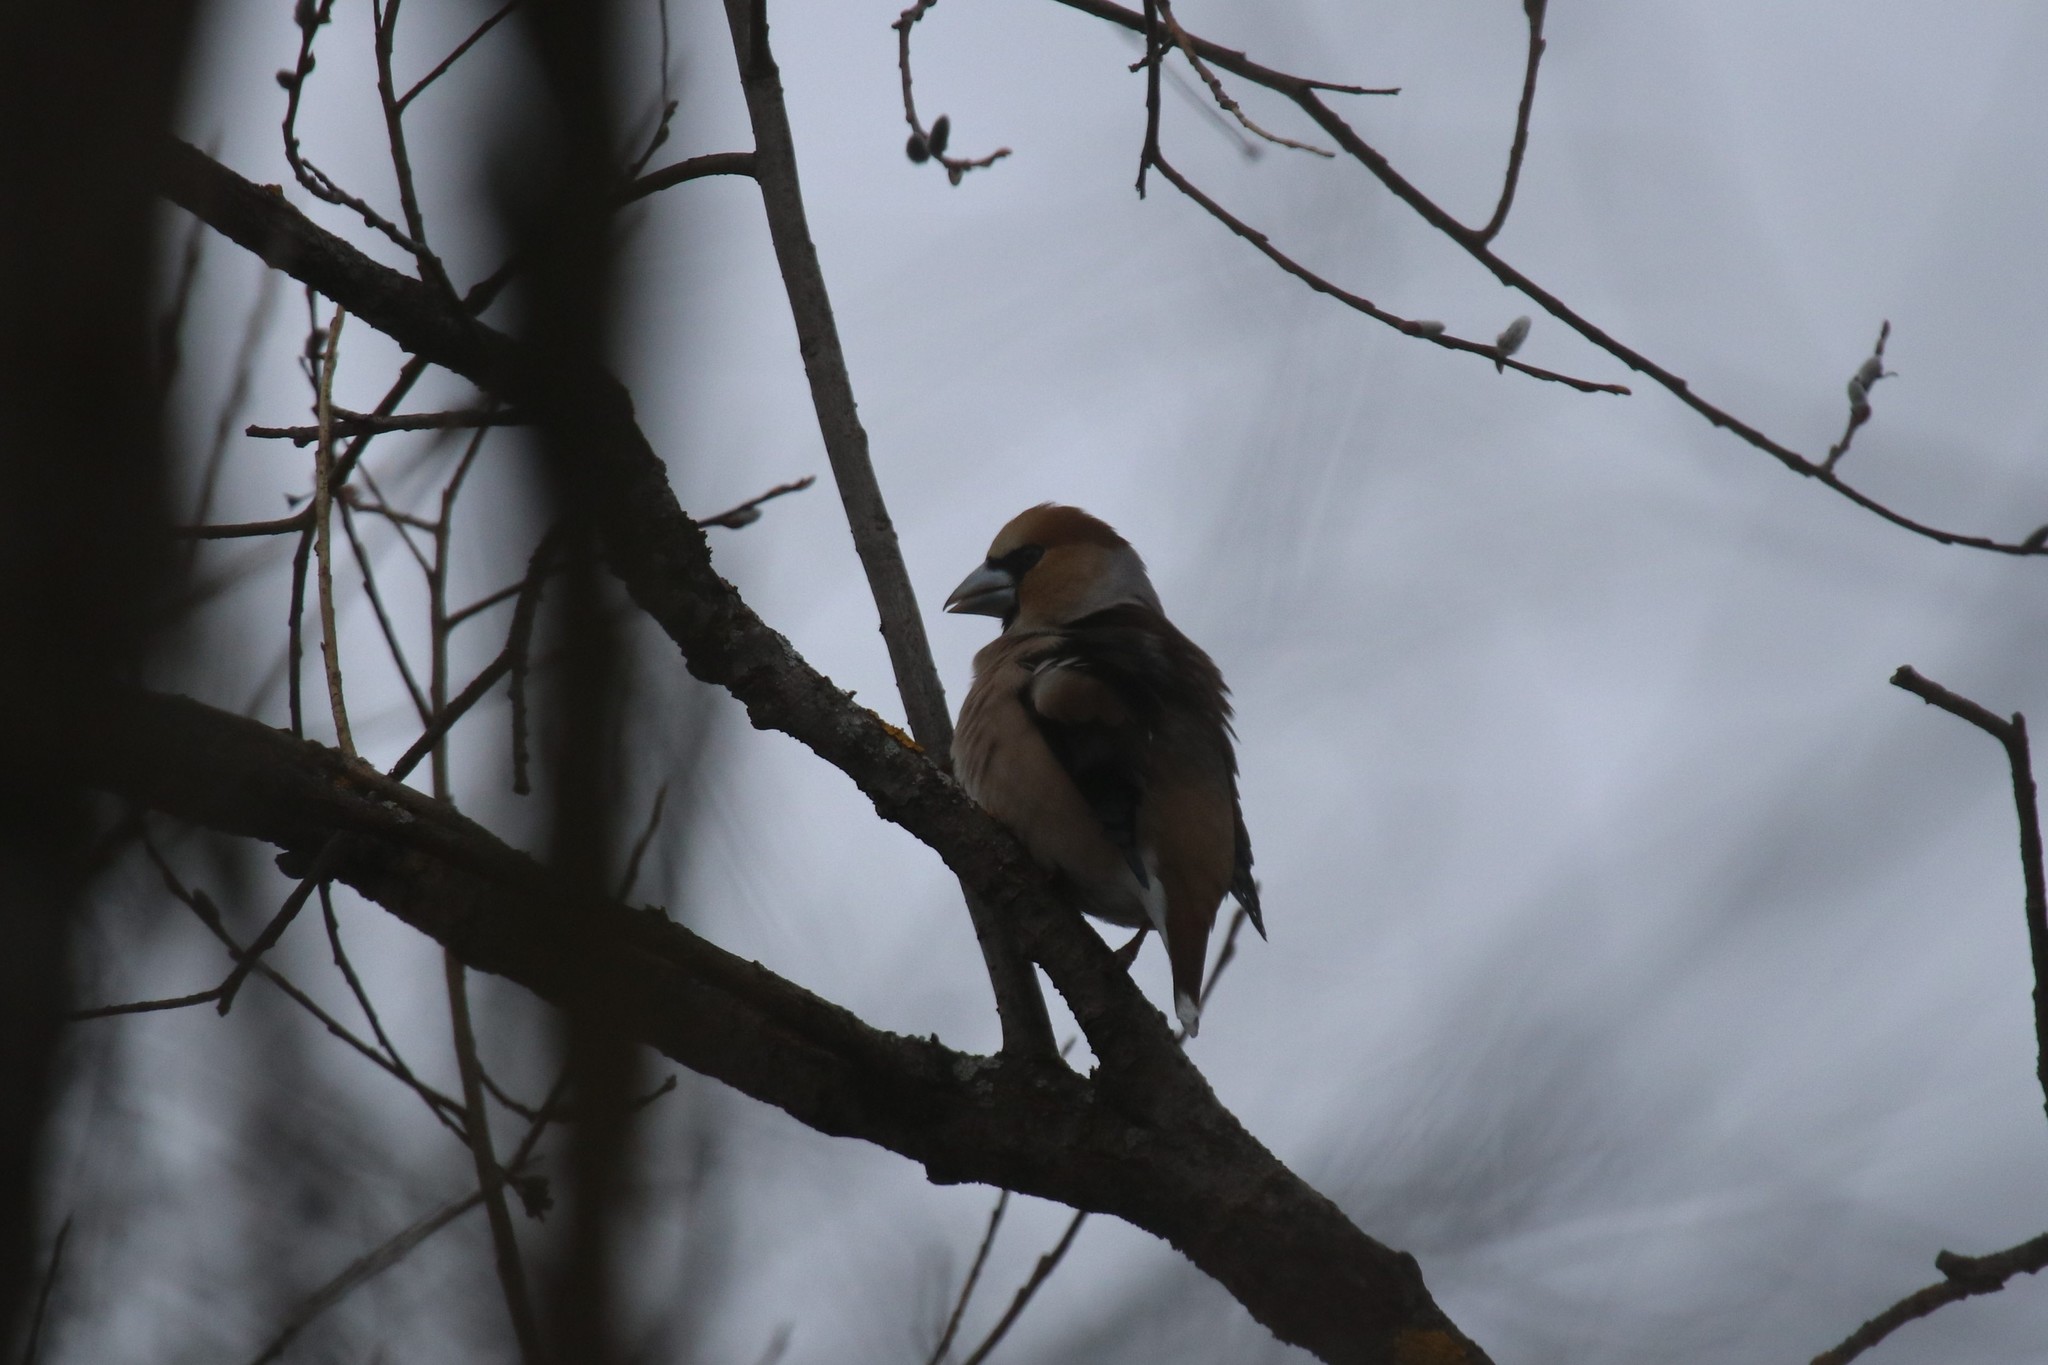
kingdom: Animalia
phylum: Chordata
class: Aves
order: Passeriformes
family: Fringillidae
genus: Coccothraustes
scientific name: Coccothraustes coccothraustes
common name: Hawfinch
